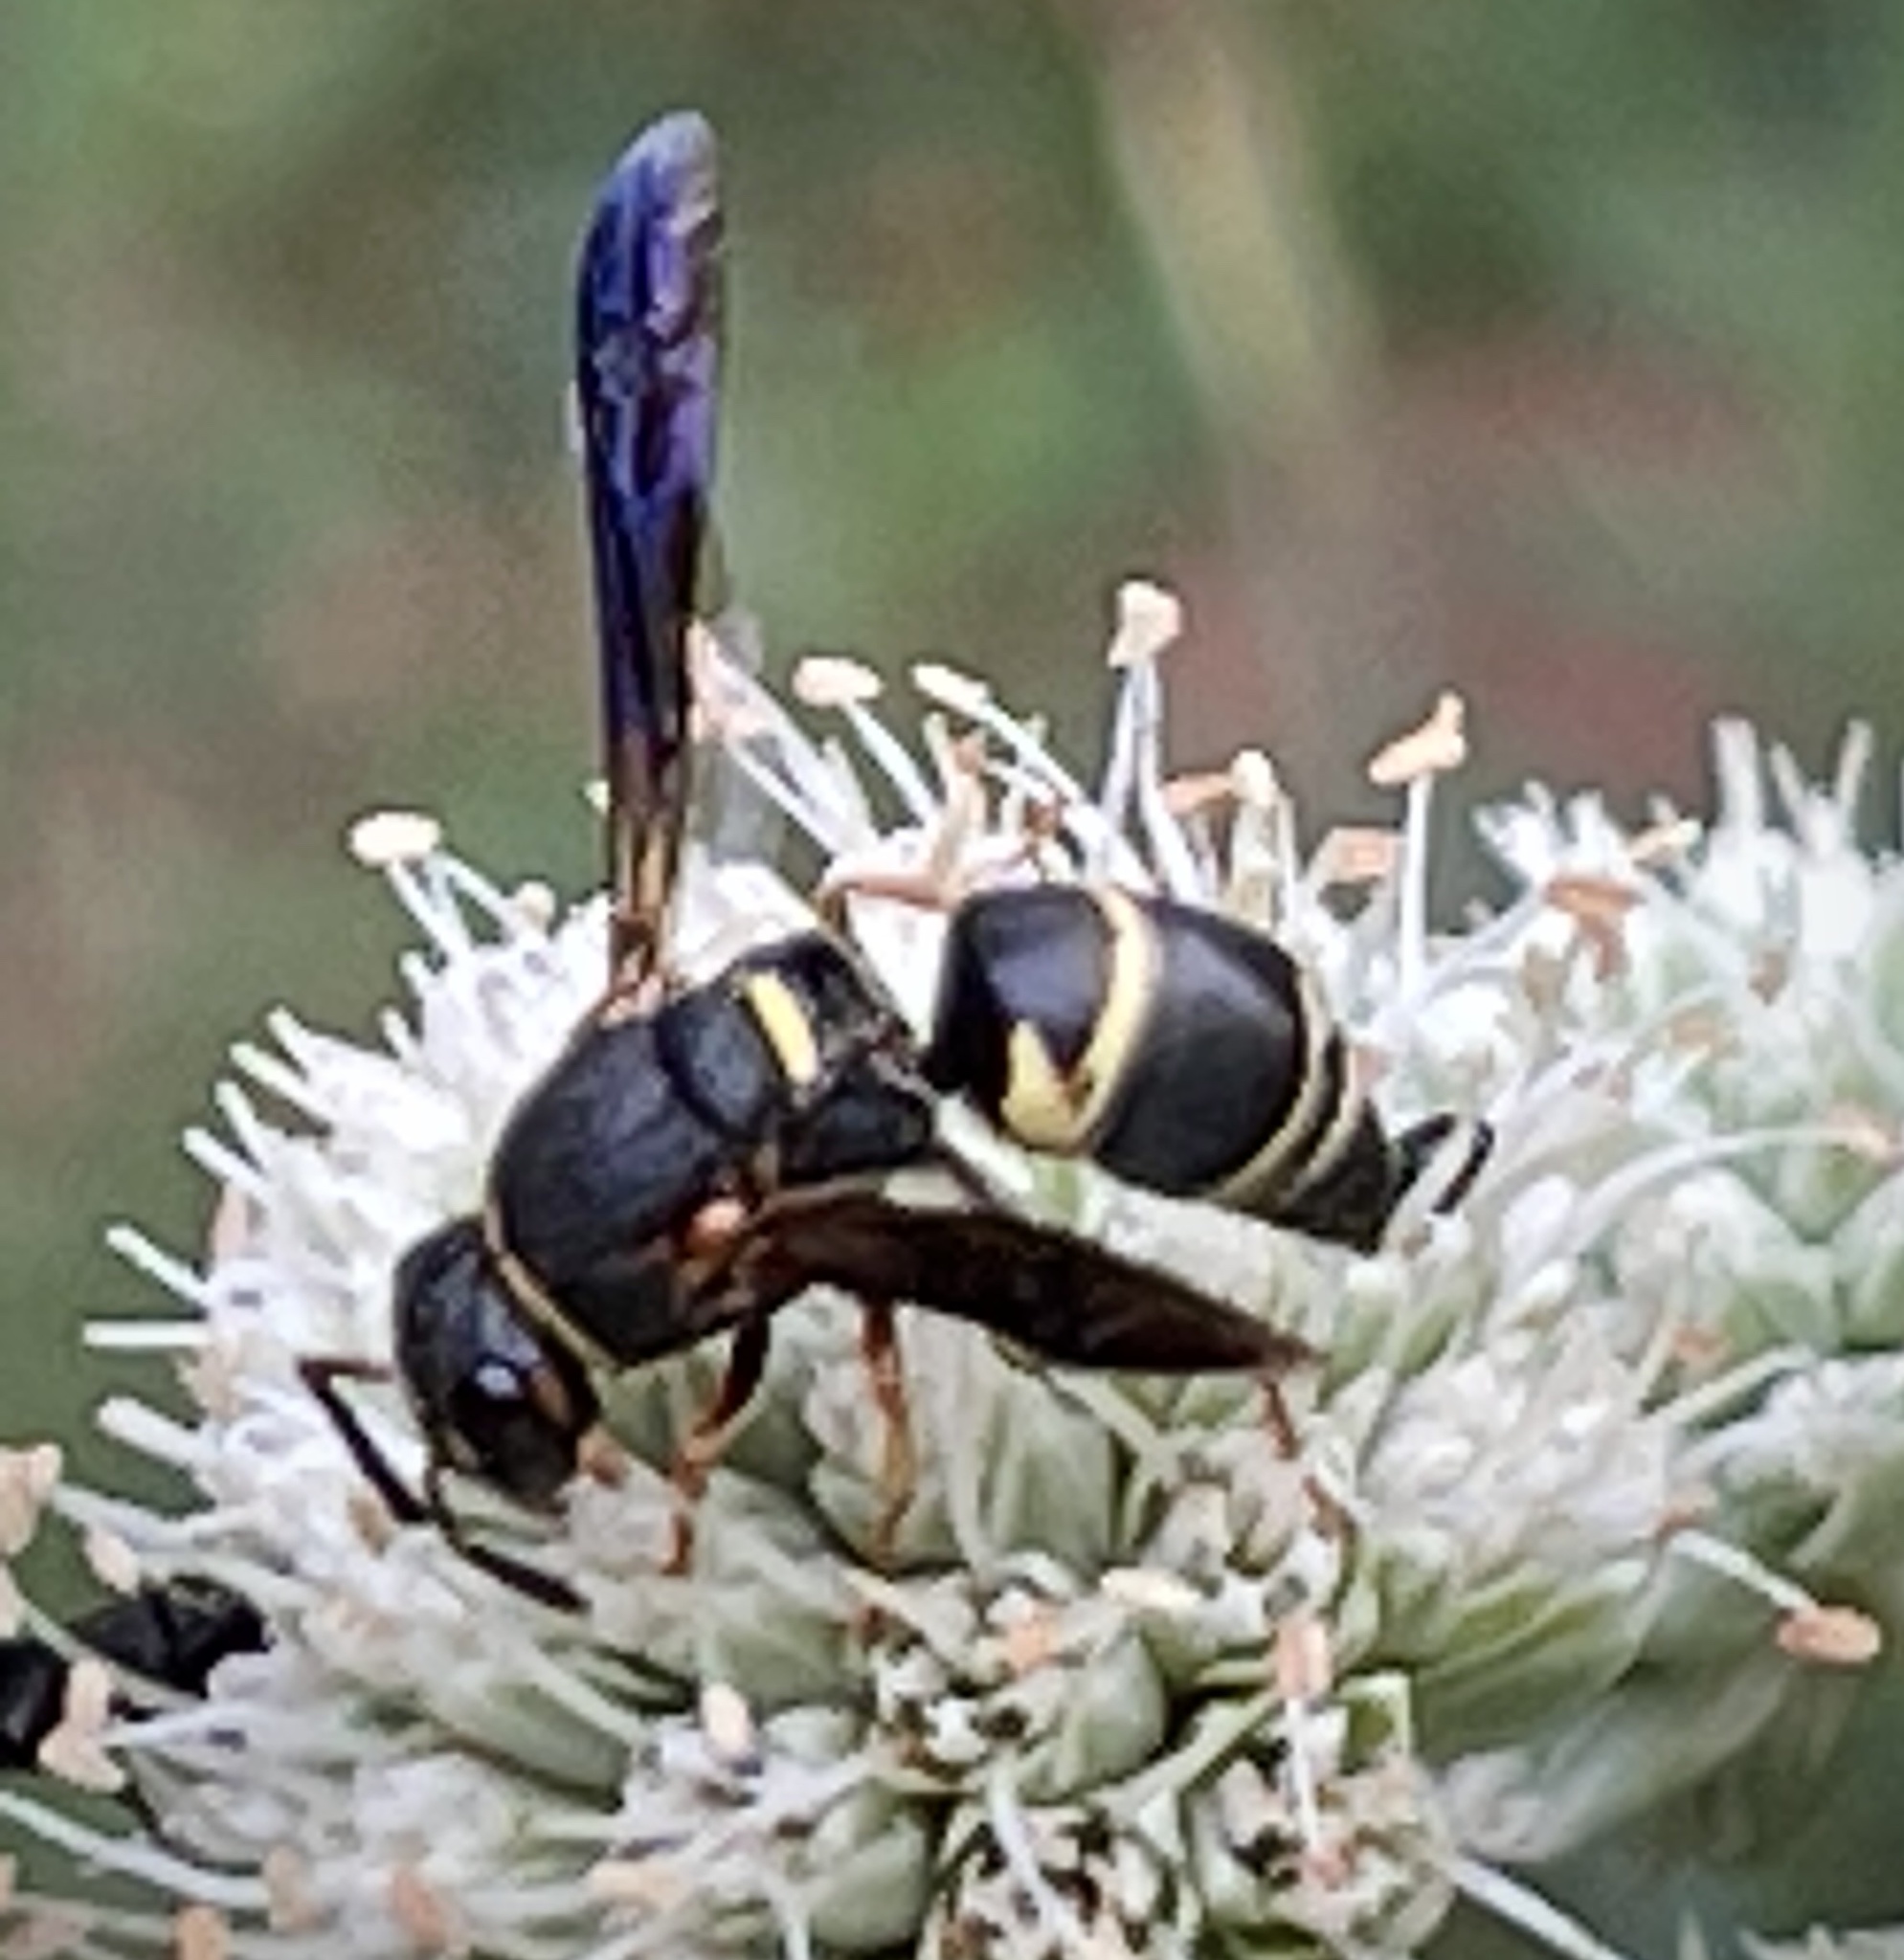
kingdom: Animalia
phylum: Arthropoda
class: Insecta
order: Hymenoptera
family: Eumenidae
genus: Euodynerus
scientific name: Euodynerus hidalgo
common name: Wasp
